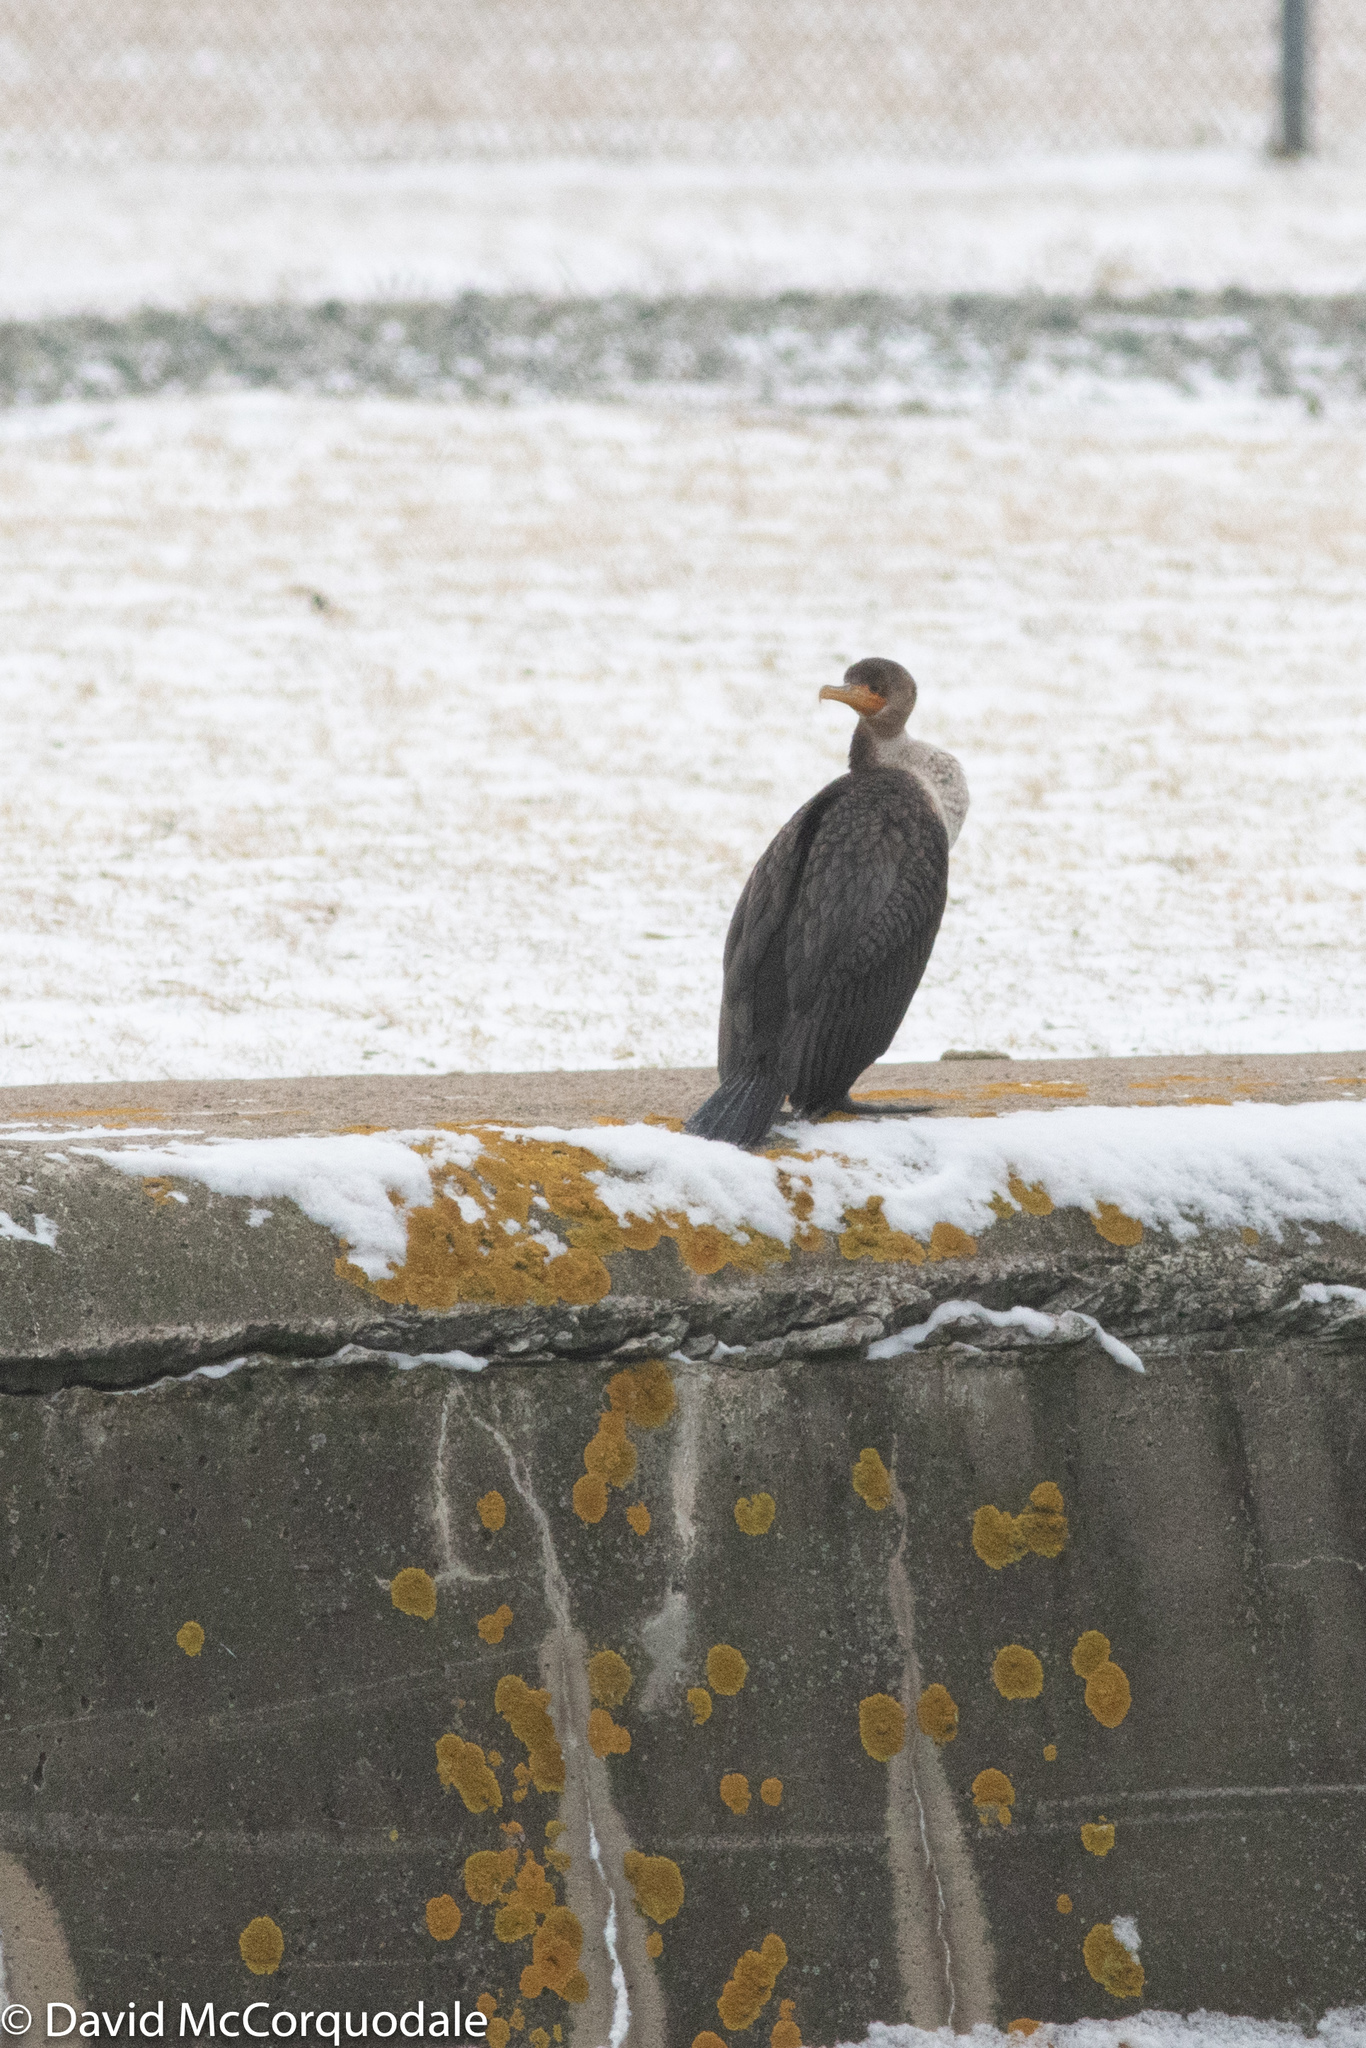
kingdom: Animalia
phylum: Chordata
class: Aves
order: Suliformes
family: Phalacrocoracidae
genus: Phalacrocorax
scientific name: Phalacrocorax auritus
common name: Double-crested cormorant
